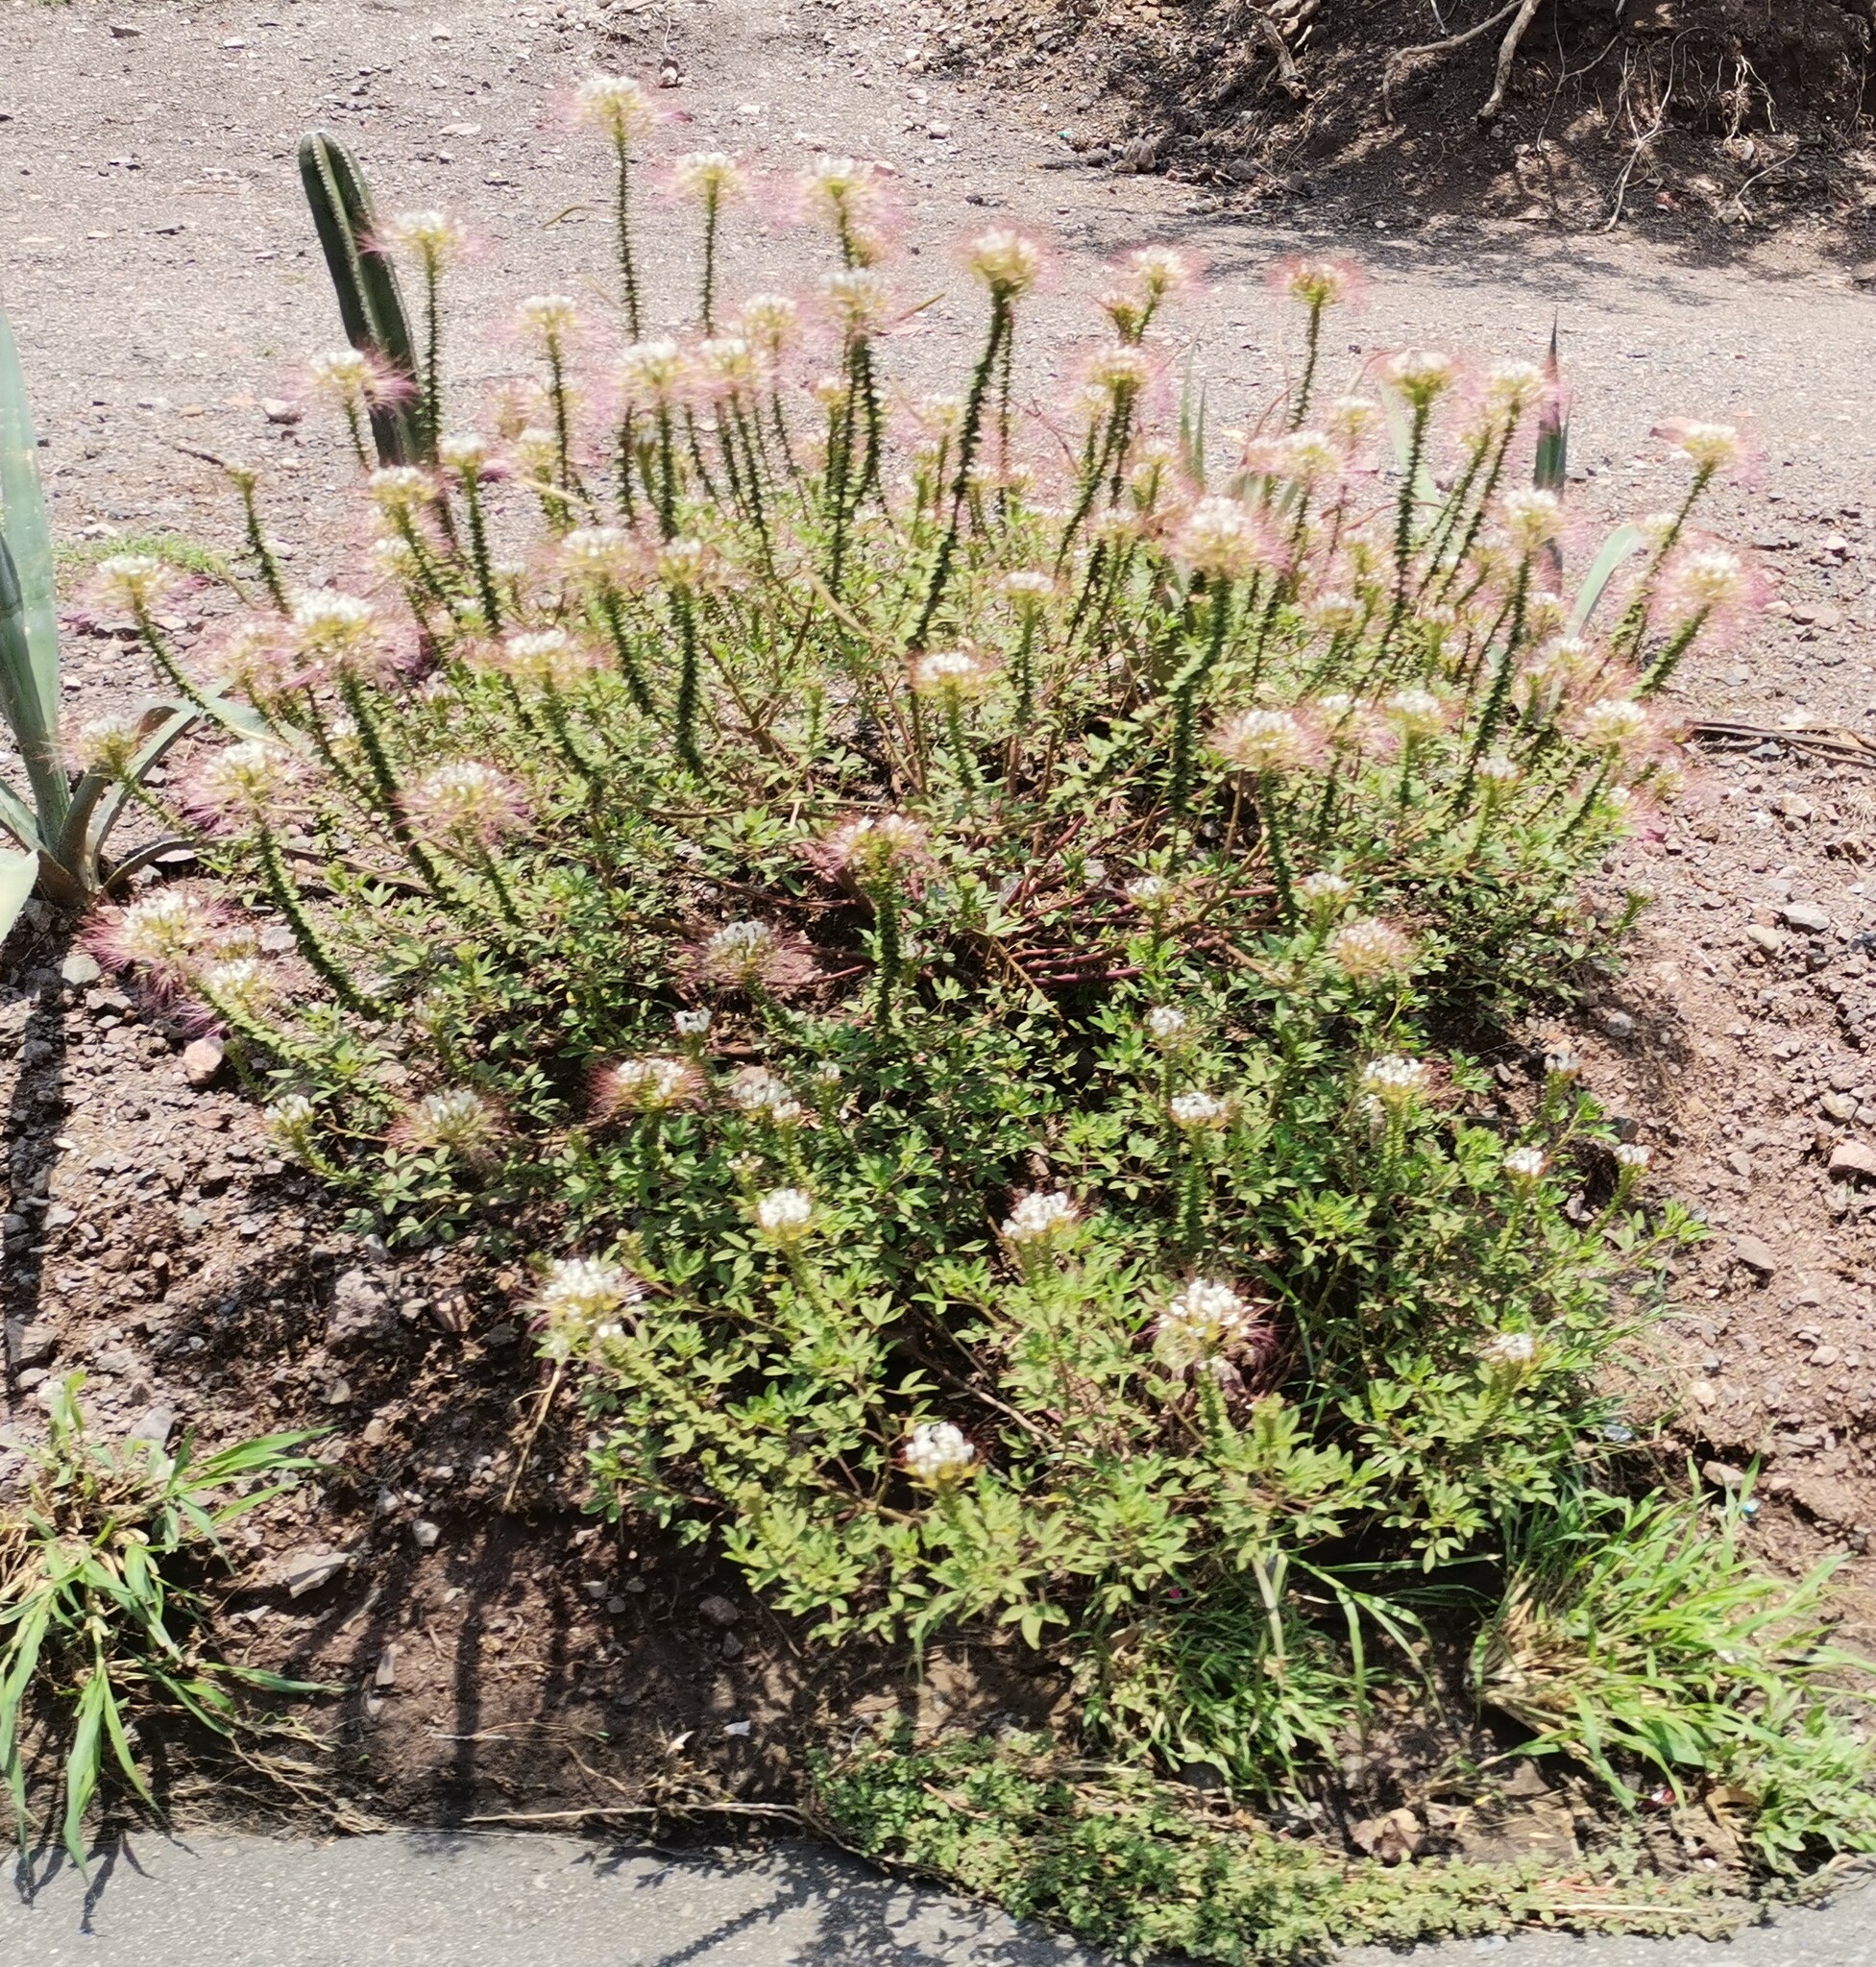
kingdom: Plantae
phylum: Tracheophyta
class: Magnoliopsida
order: Brassicales
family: Cleomaceae
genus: Polanisia
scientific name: Polanisia dodecandra
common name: Clammyweed
